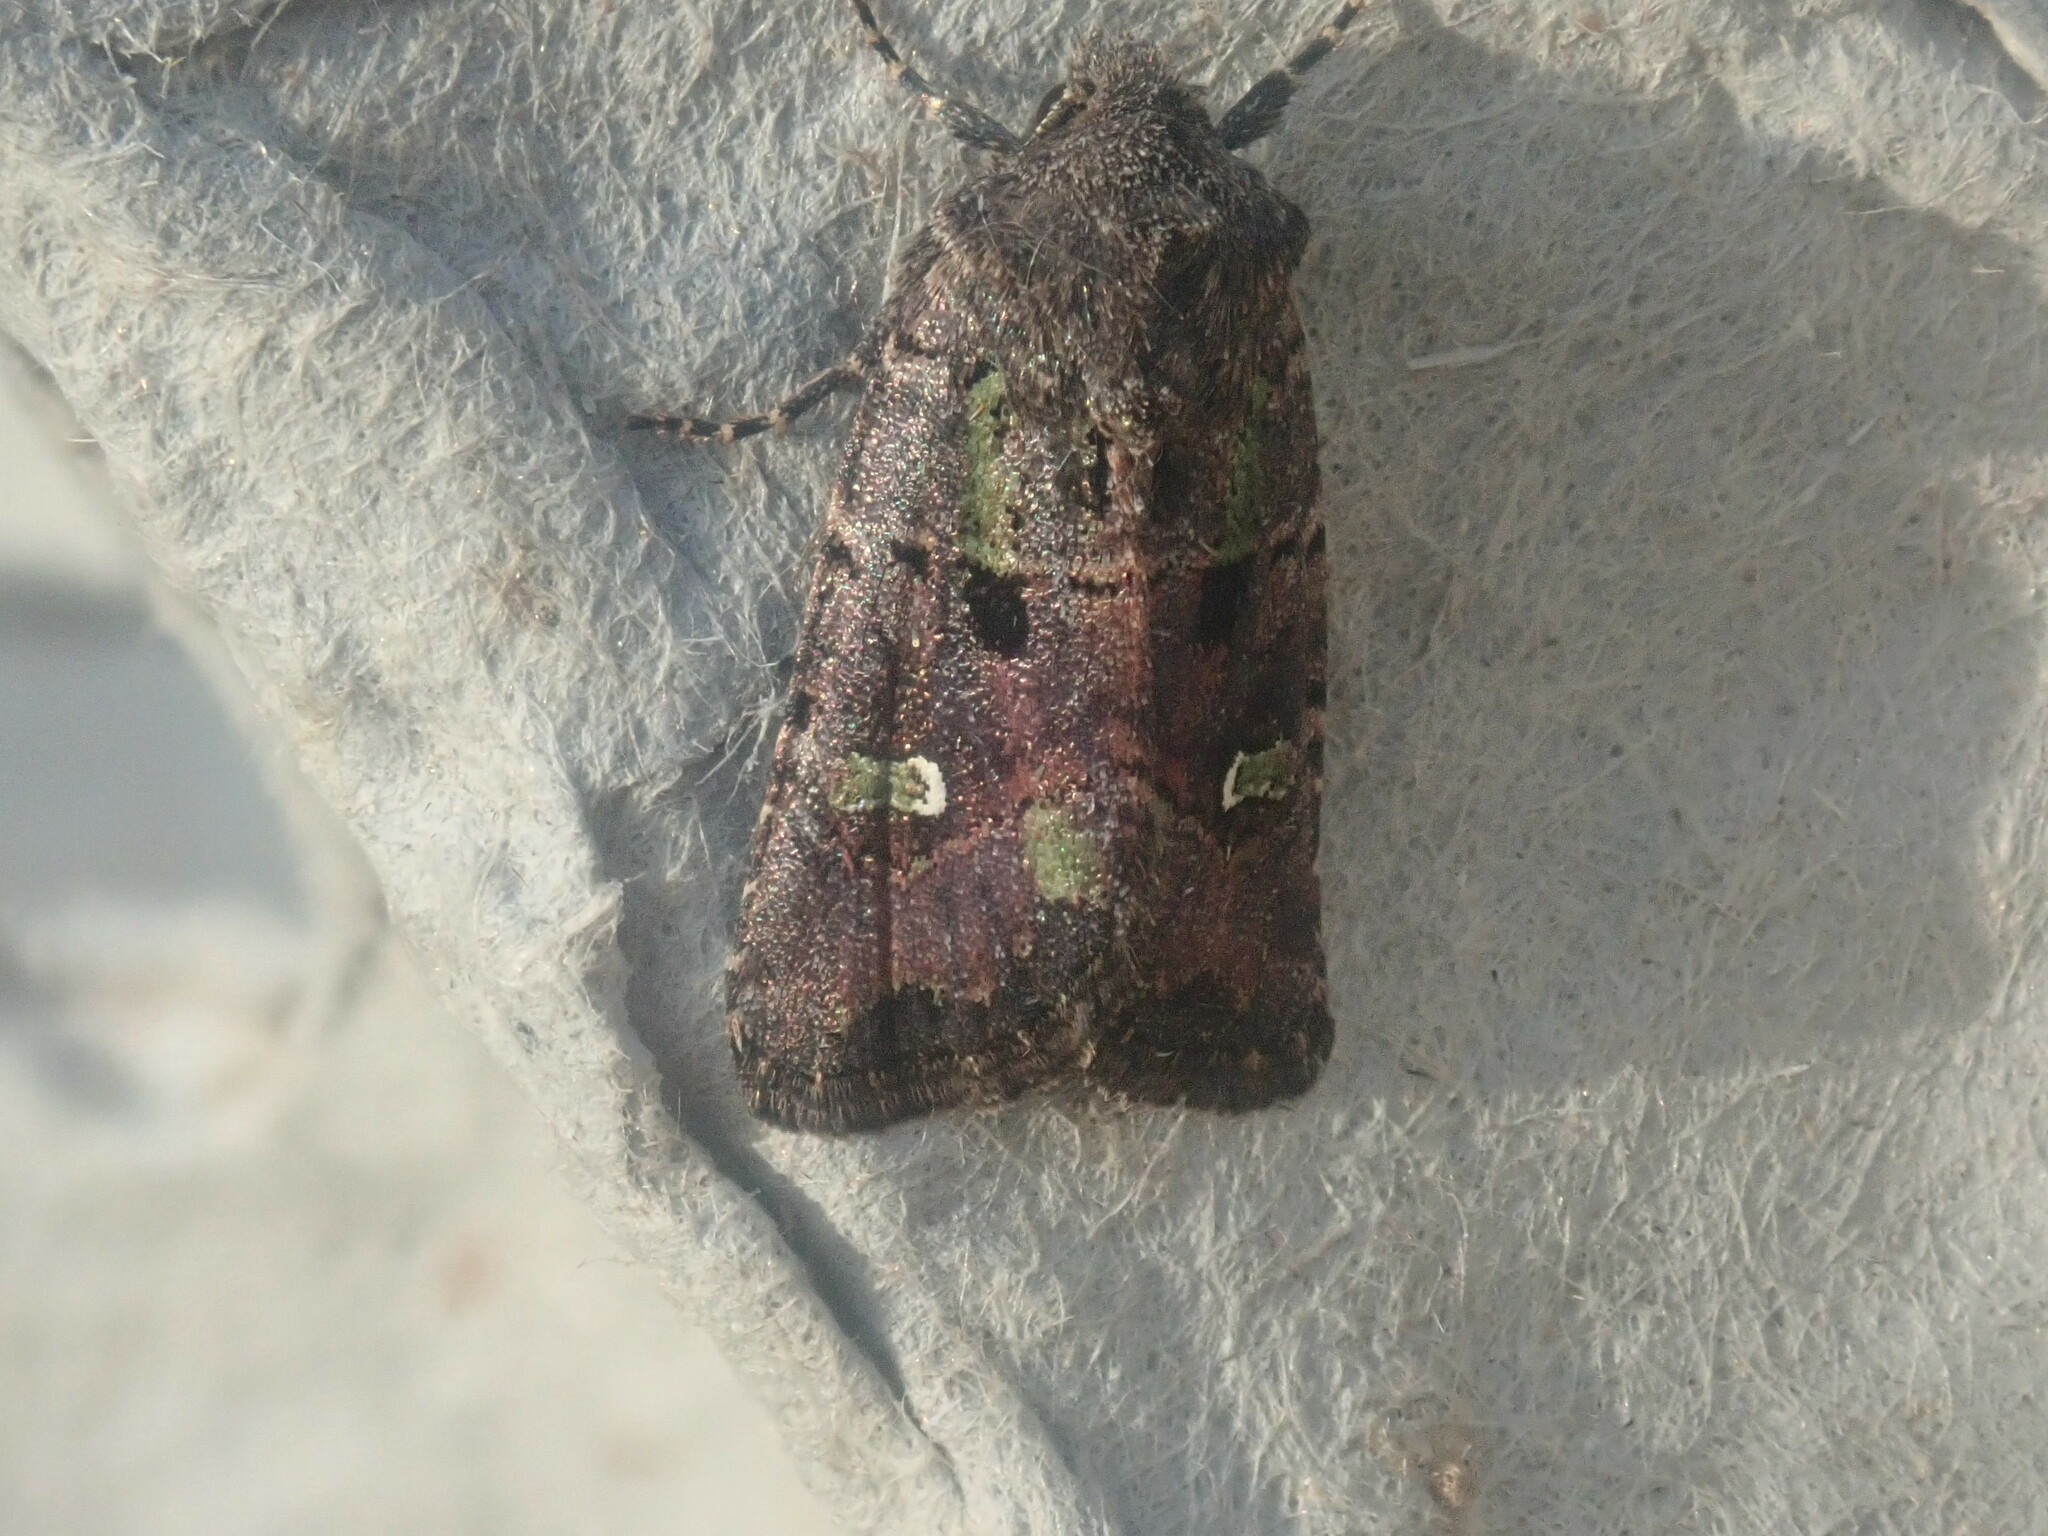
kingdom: Animalia
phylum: Arthropoda
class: Insecta
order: Lepidoptera
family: Noctuidae
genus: Lacinipolia
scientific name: Lacinipolia renigera
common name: Kidney-spotted minor
